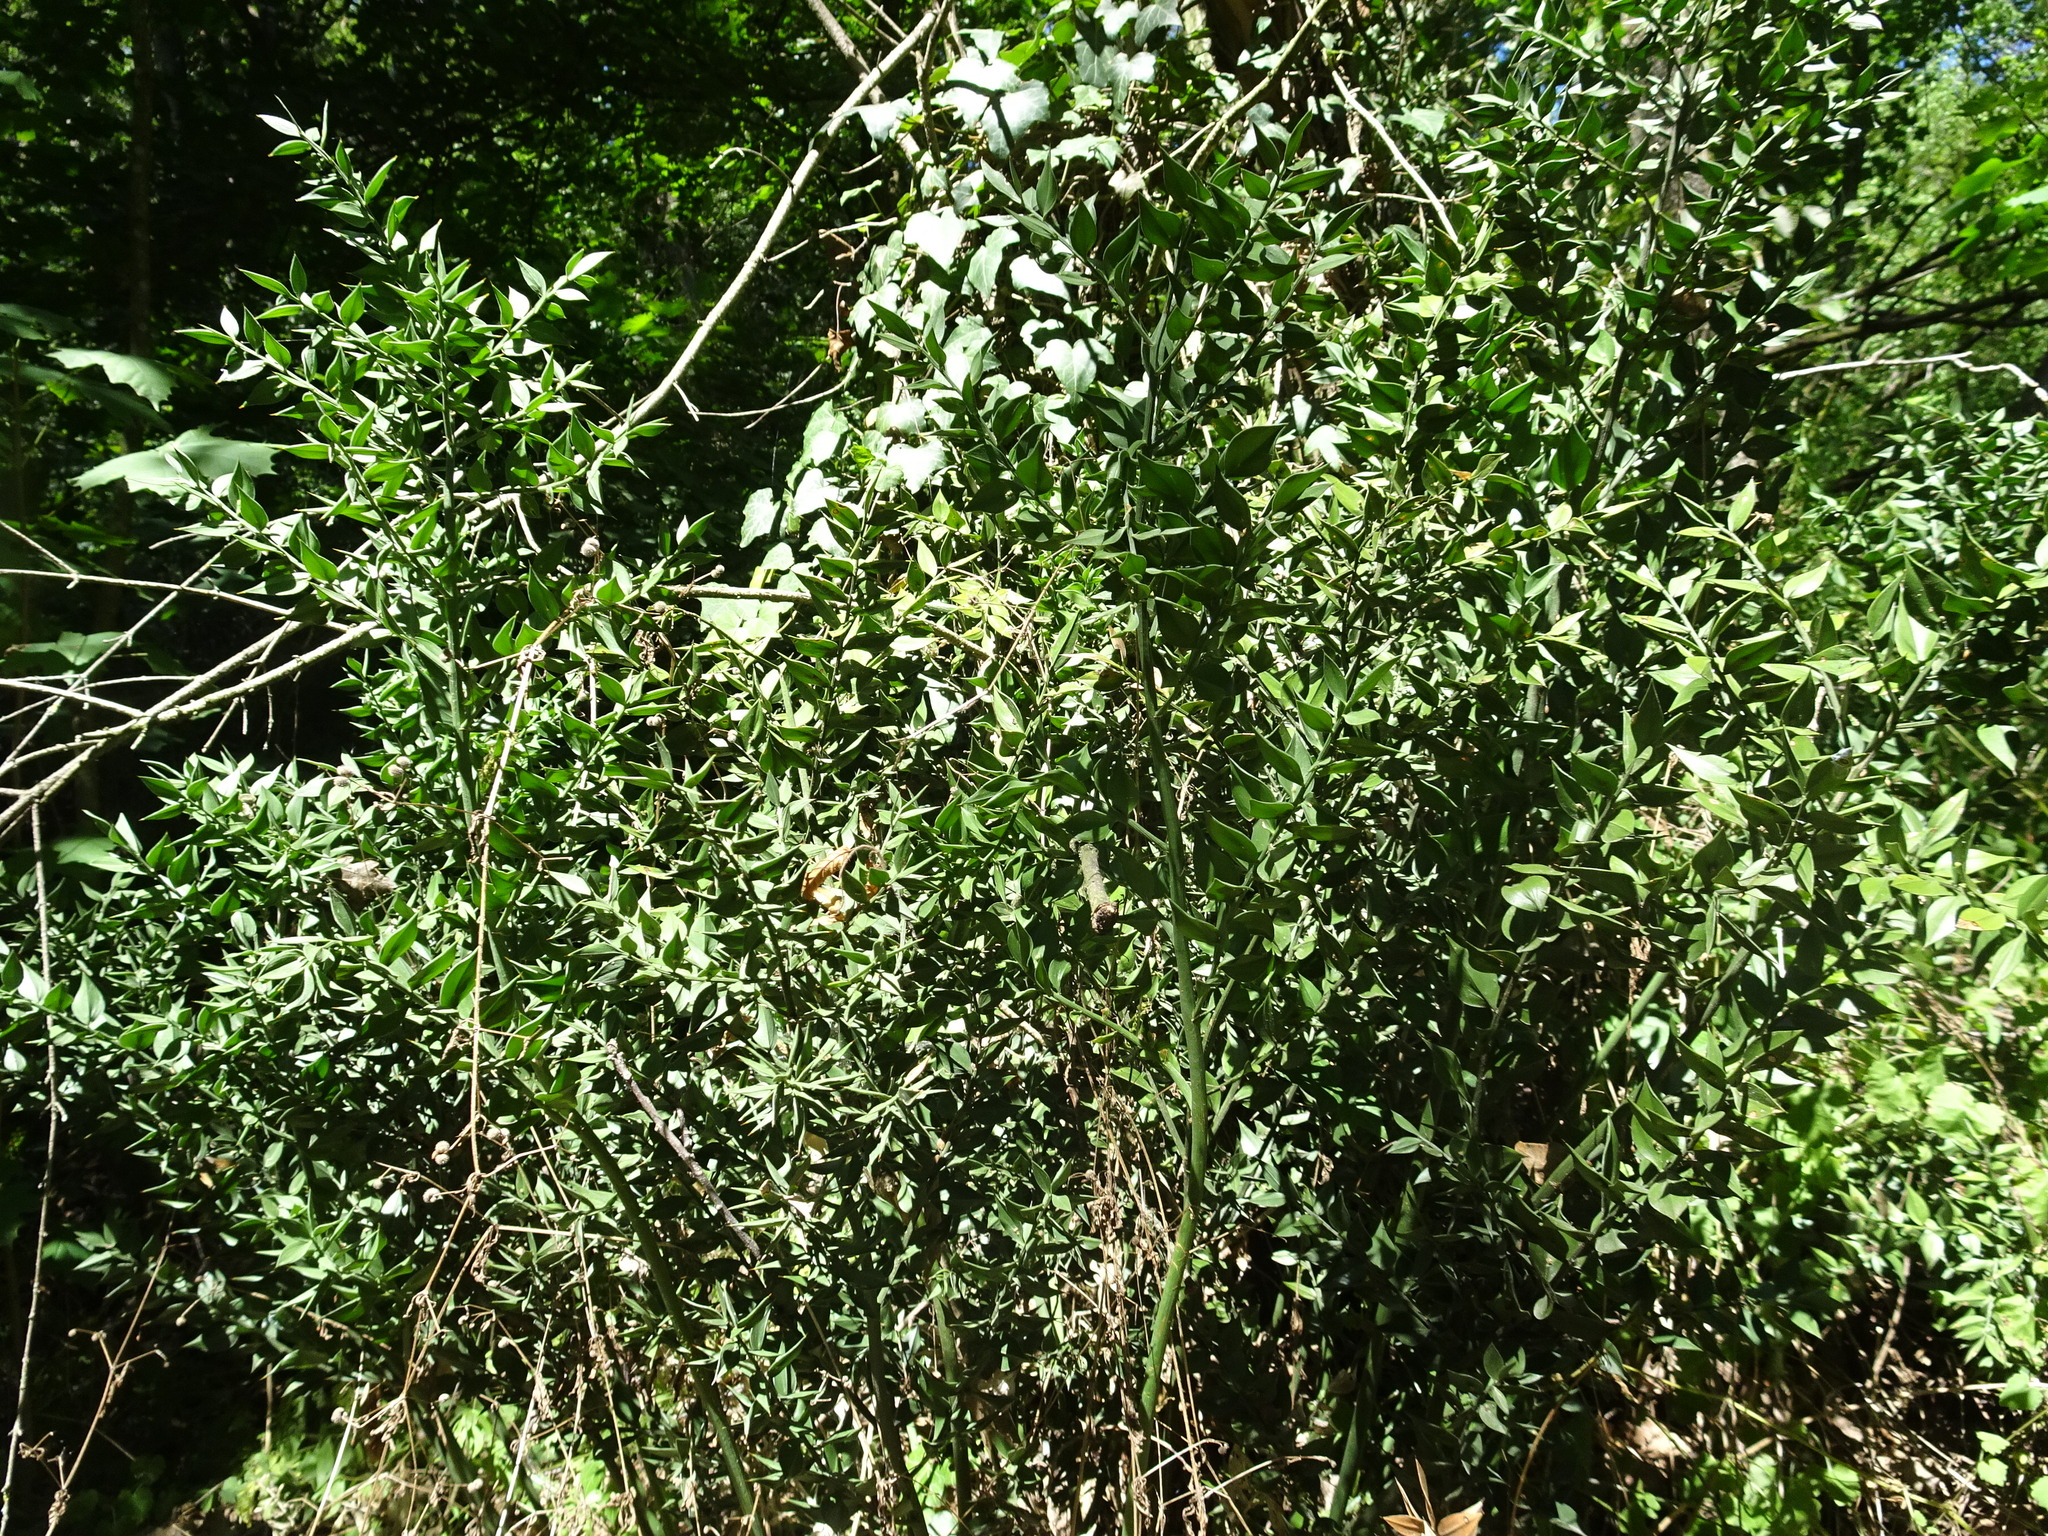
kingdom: Plantae
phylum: Tracheophyta
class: Liliopsida
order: Asparagales
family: Asparagaceae
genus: Ruscus
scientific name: Ruscus aculeatus
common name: Butcher's-broom
